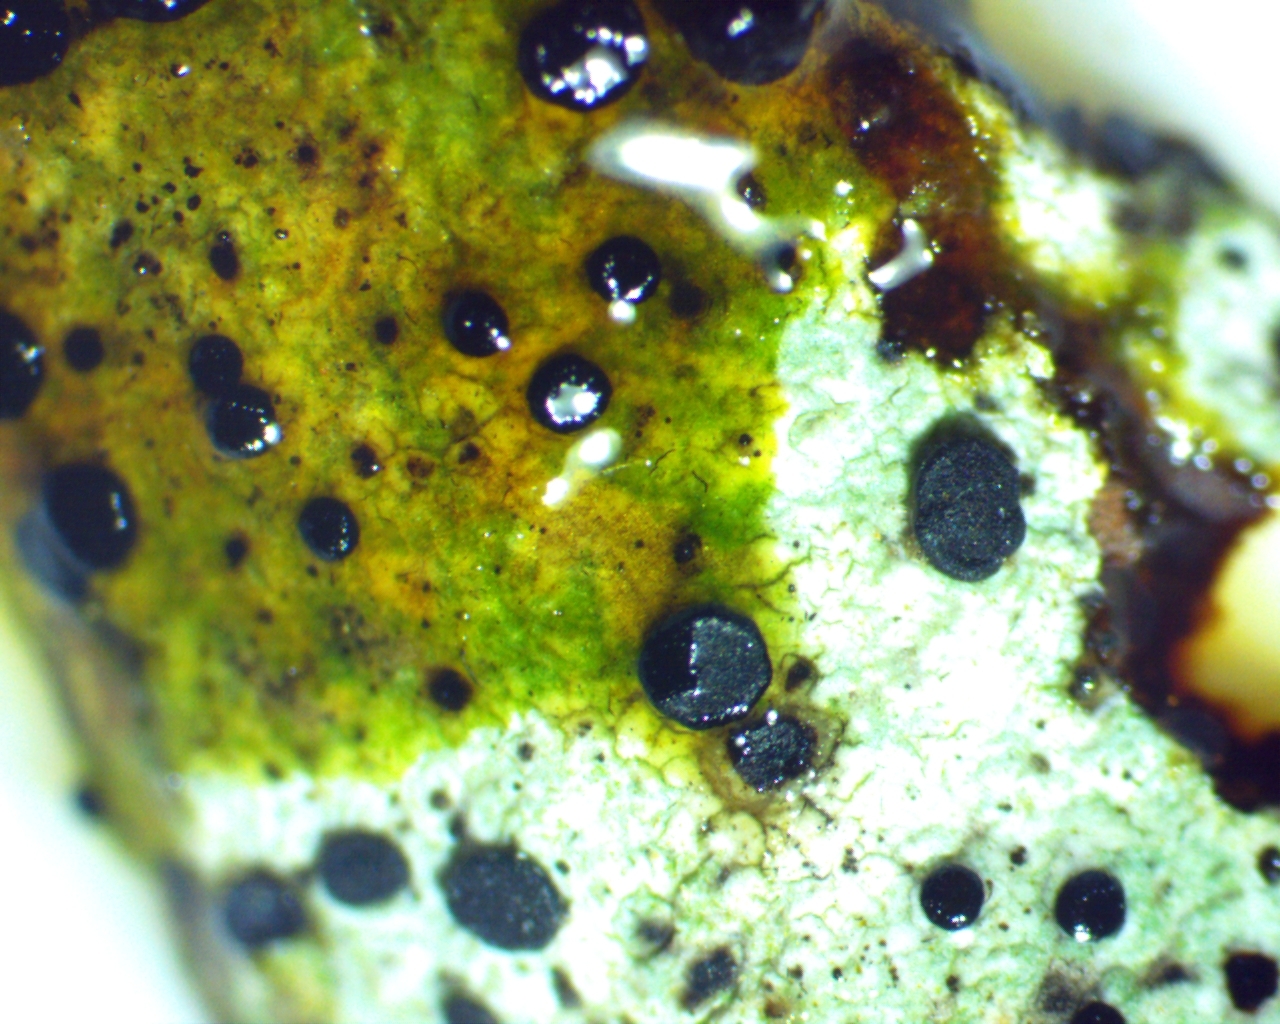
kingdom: Fungi
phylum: Ascomycota
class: Lecanoromycetes
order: Caliciales
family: Caliciaceae
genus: Buellia
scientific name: Buellia erubescens
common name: Common button lichen
